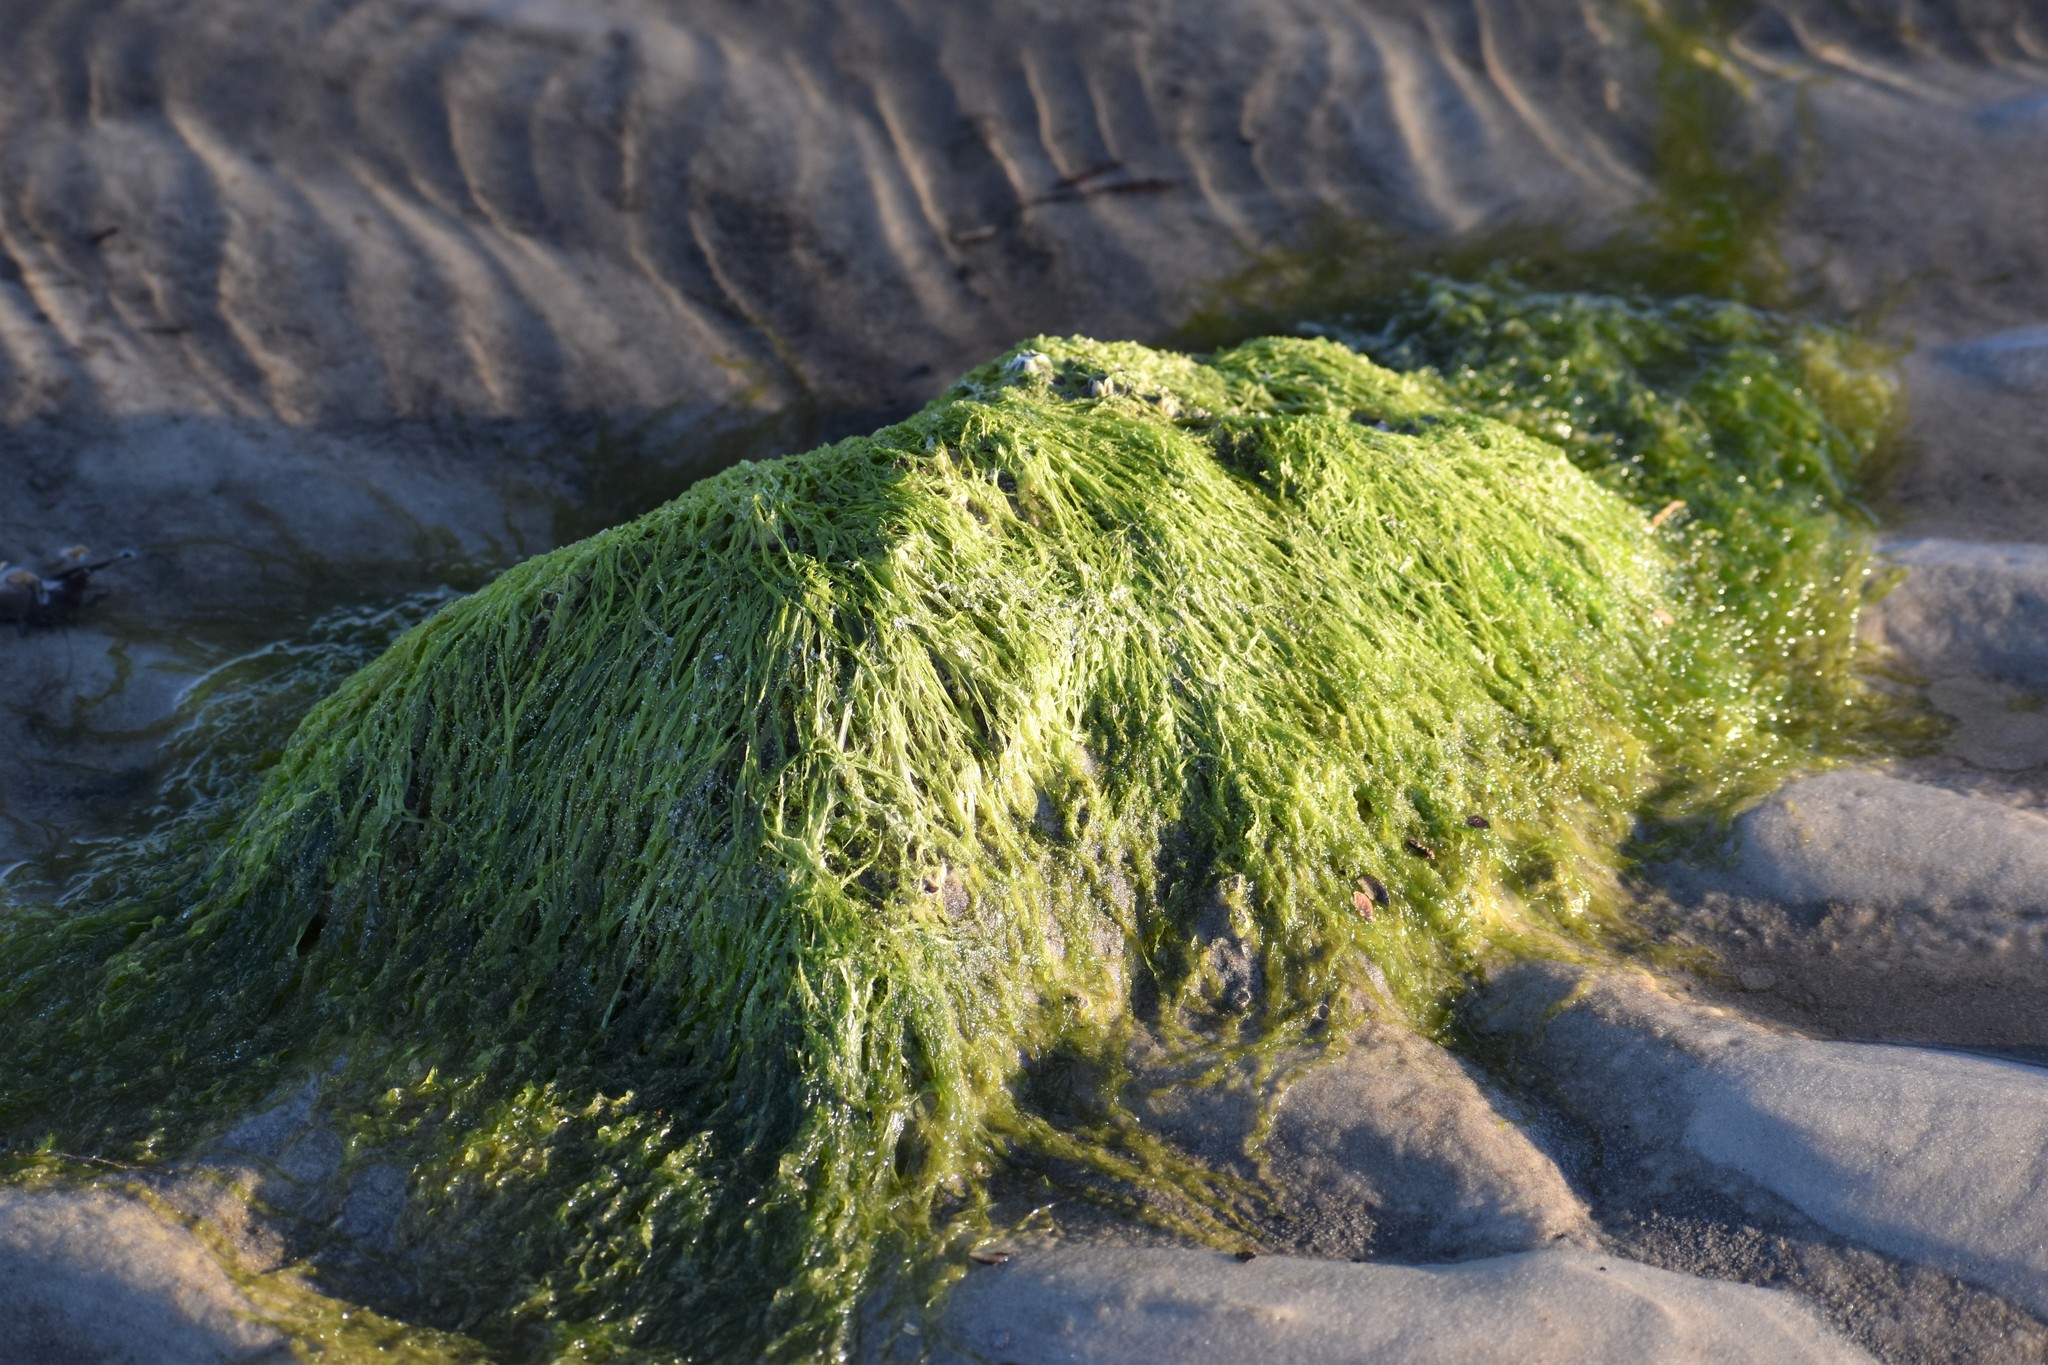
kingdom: Plantae
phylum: Chlorophyta
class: Ulvophyceae
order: Ulvales
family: Ulvaceae
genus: Ulva
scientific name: Ulva intestinalis
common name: Gut weed
